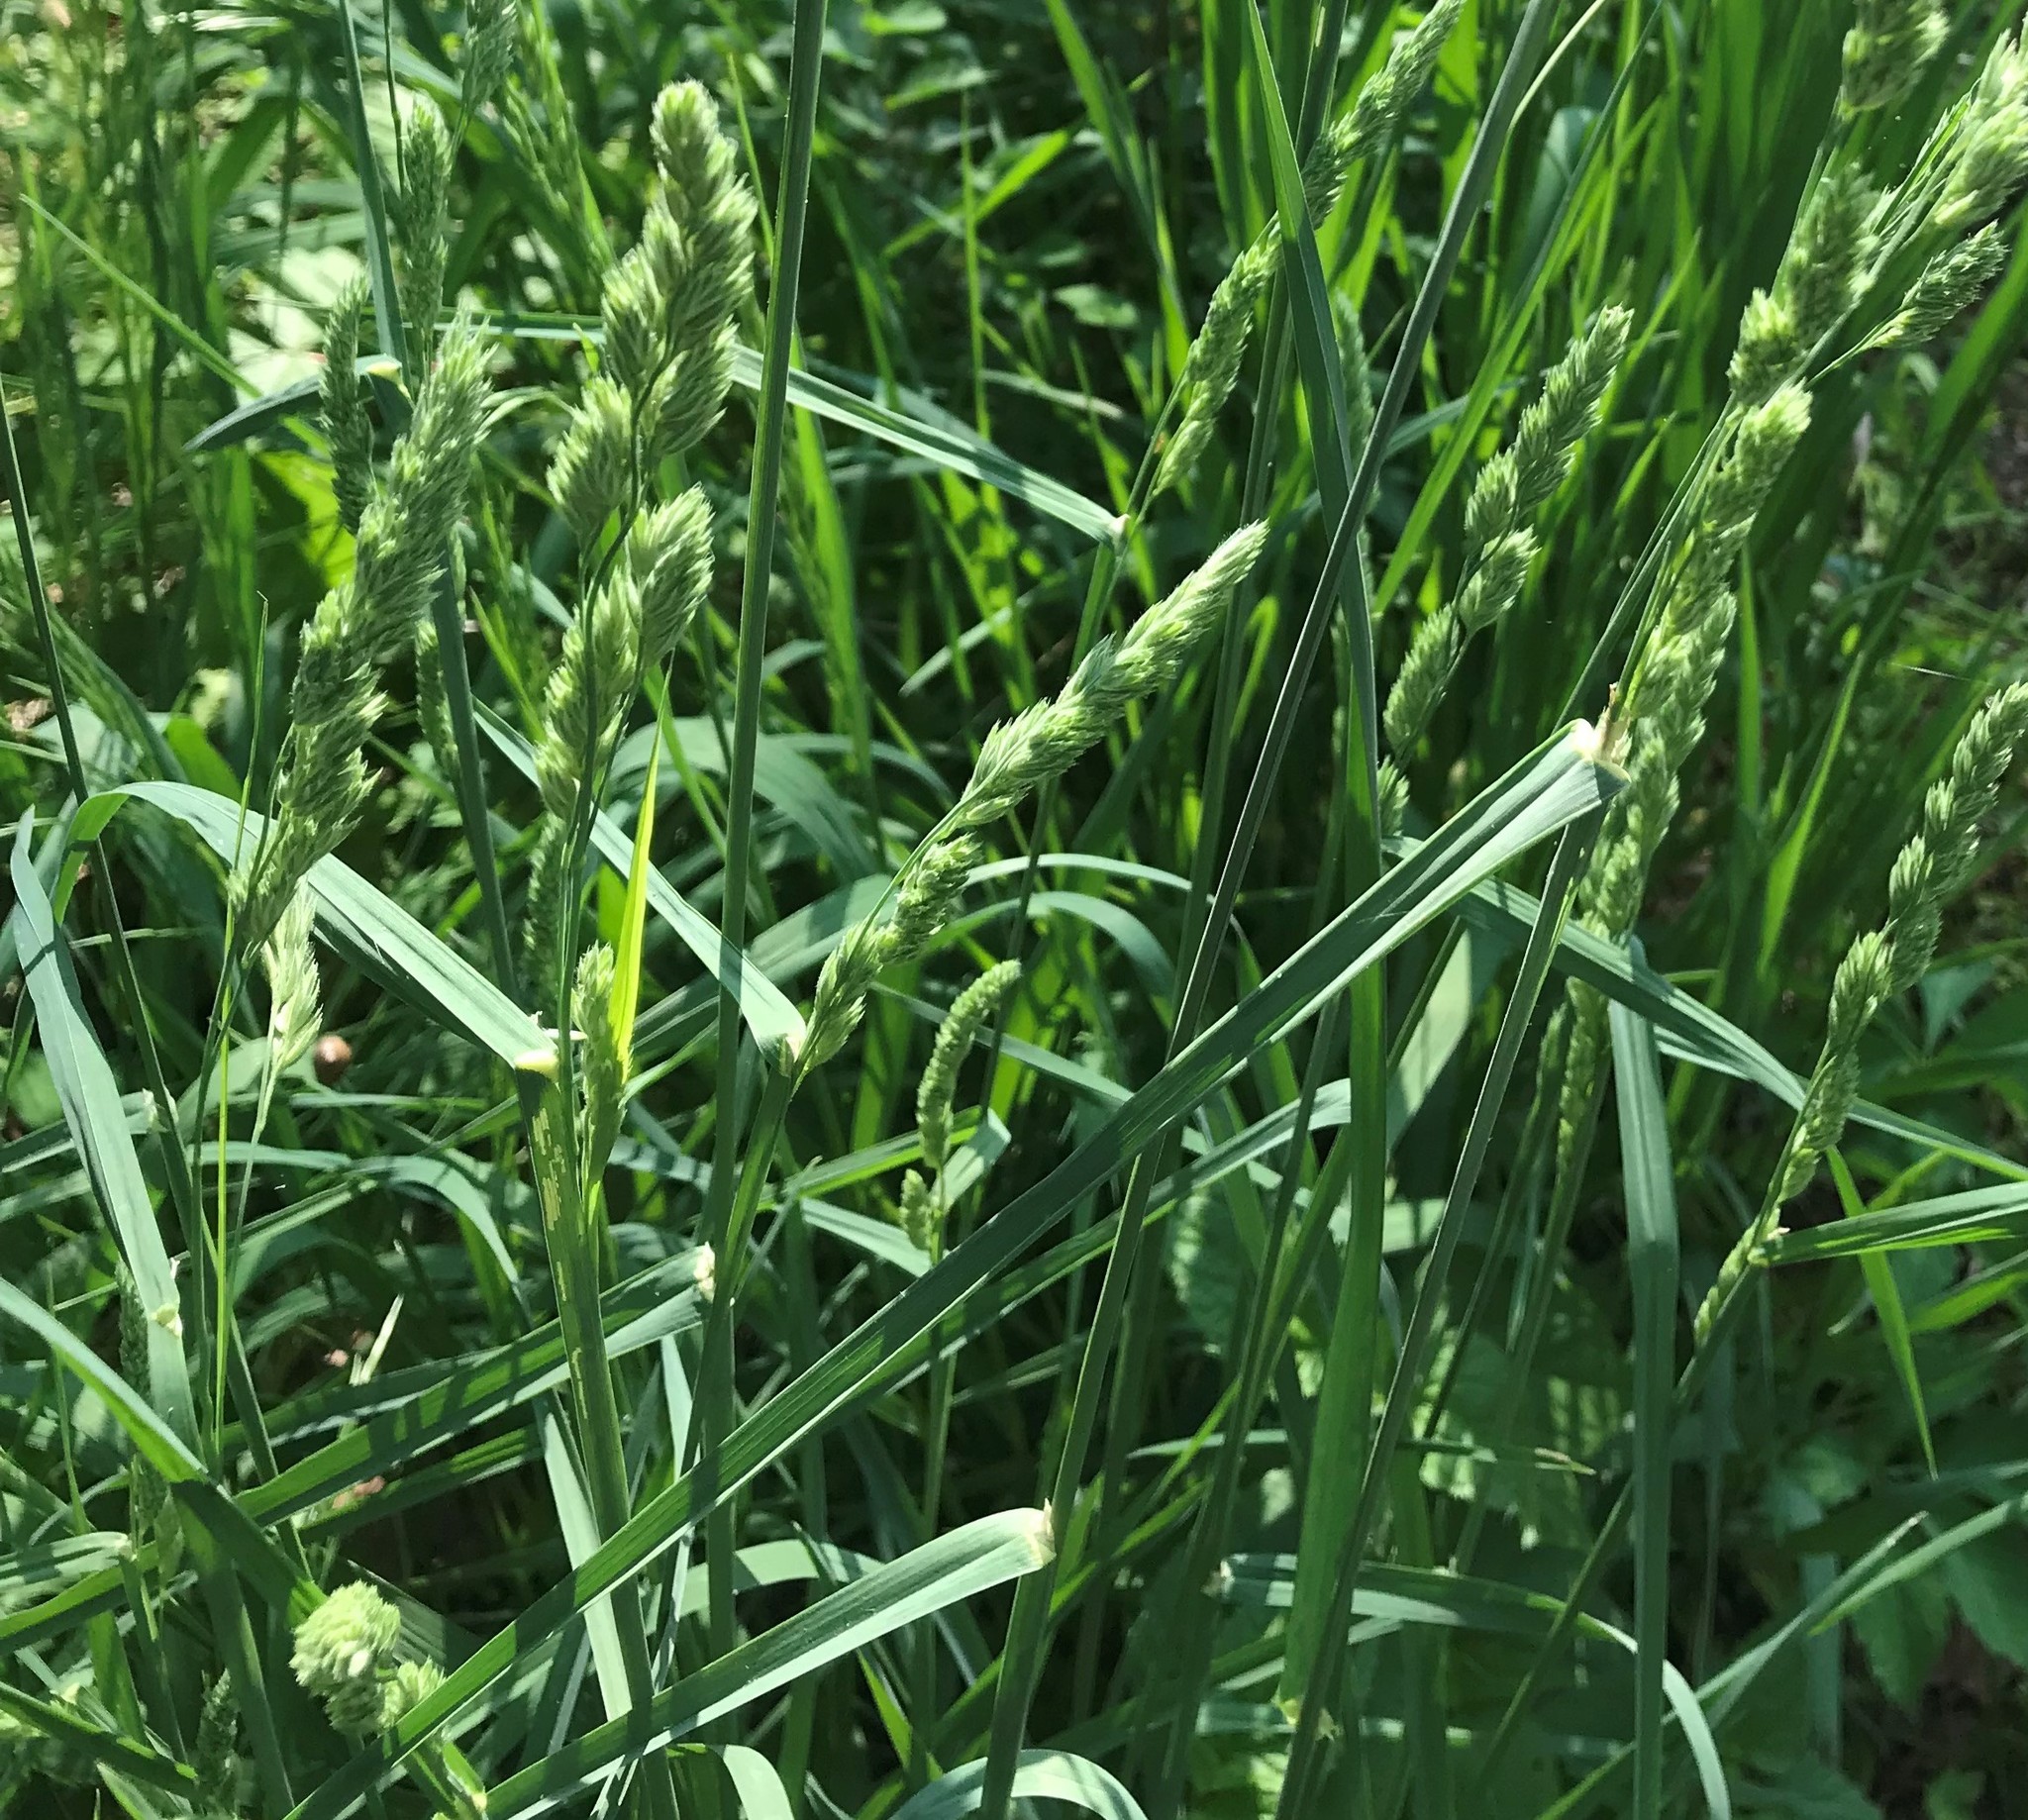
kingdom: Plantae
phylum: Tracheophyta
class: Liliopsida
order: Poales
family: Poaceae
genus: Dactylis
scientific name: Dactylis glomerata
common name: Orchardgrass
